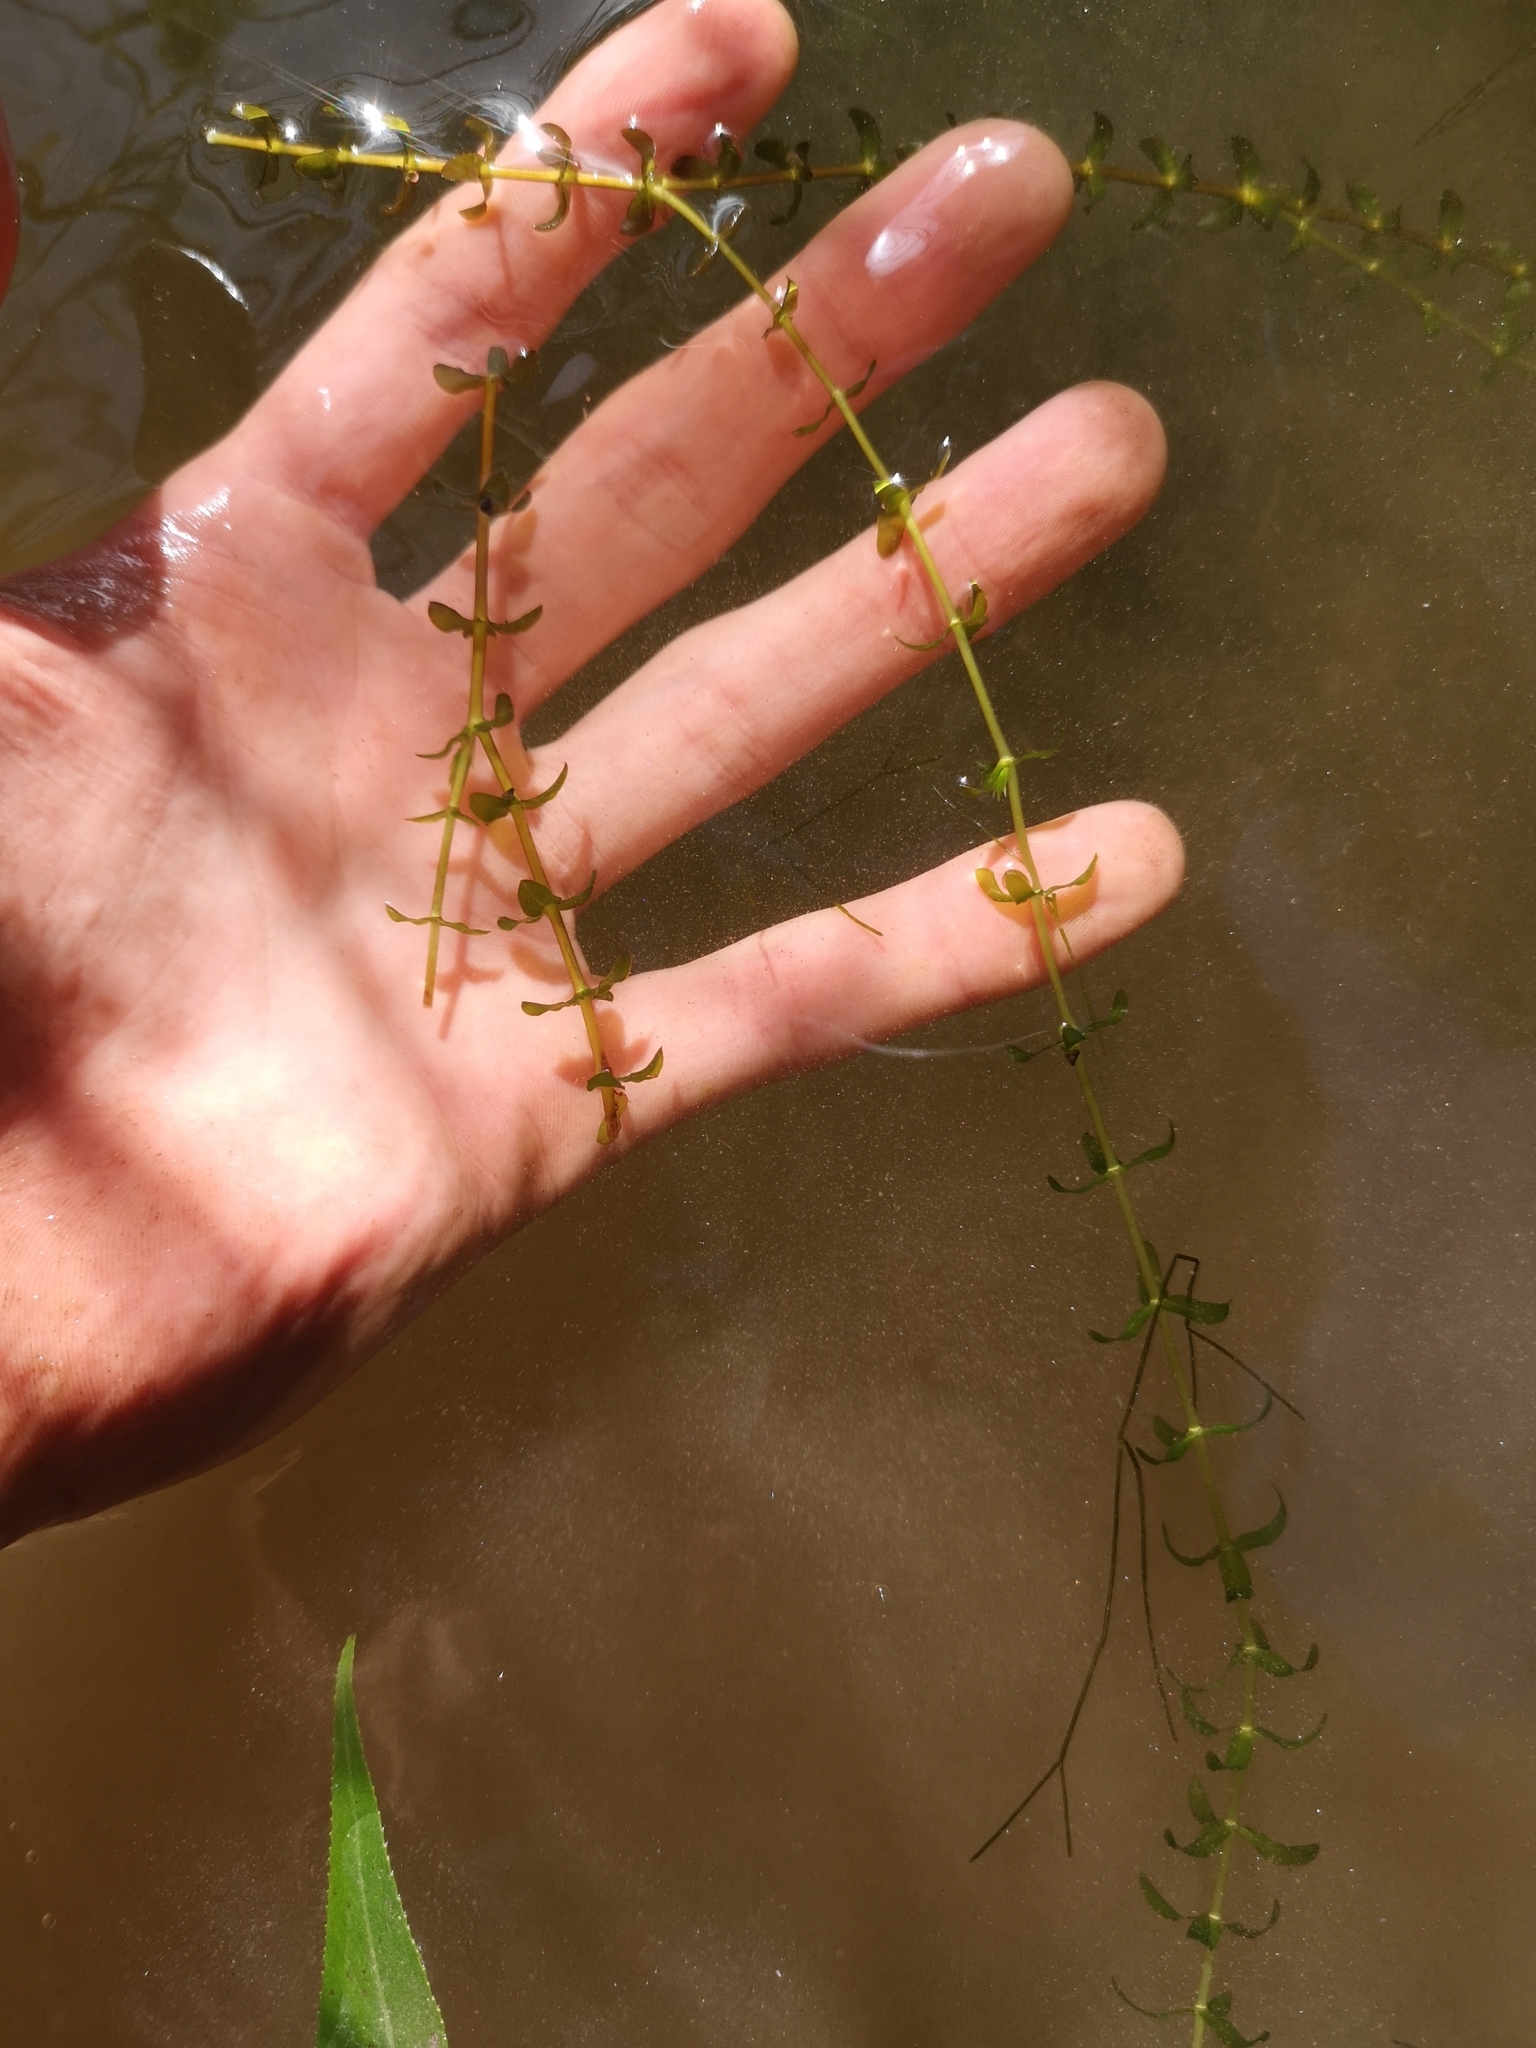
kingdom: Plantae
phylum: Tracheophyta
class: Liliopsida
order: Alismatales
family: Hydrocharitaceae
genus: Elodea
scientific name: Elodea canadensis
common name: Canadian waterweed
